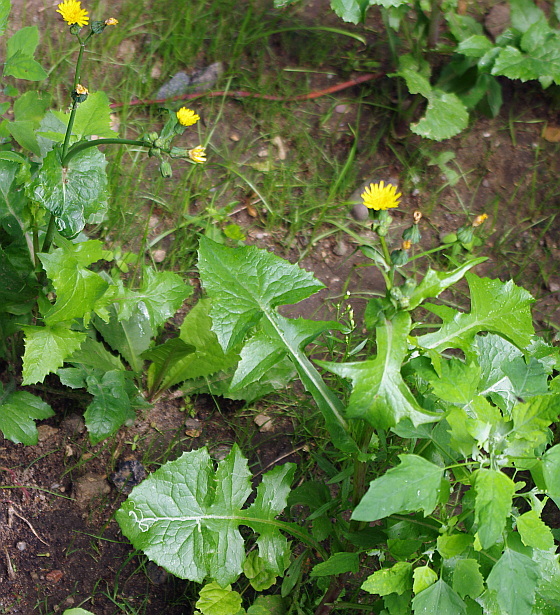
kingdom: Plantae
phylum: Tracheophyta
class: Magnoliopsida
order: Asterales
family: Asteraceae
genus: Sonchus
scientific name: Sonchus oleraceus
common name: Common sowthistle
